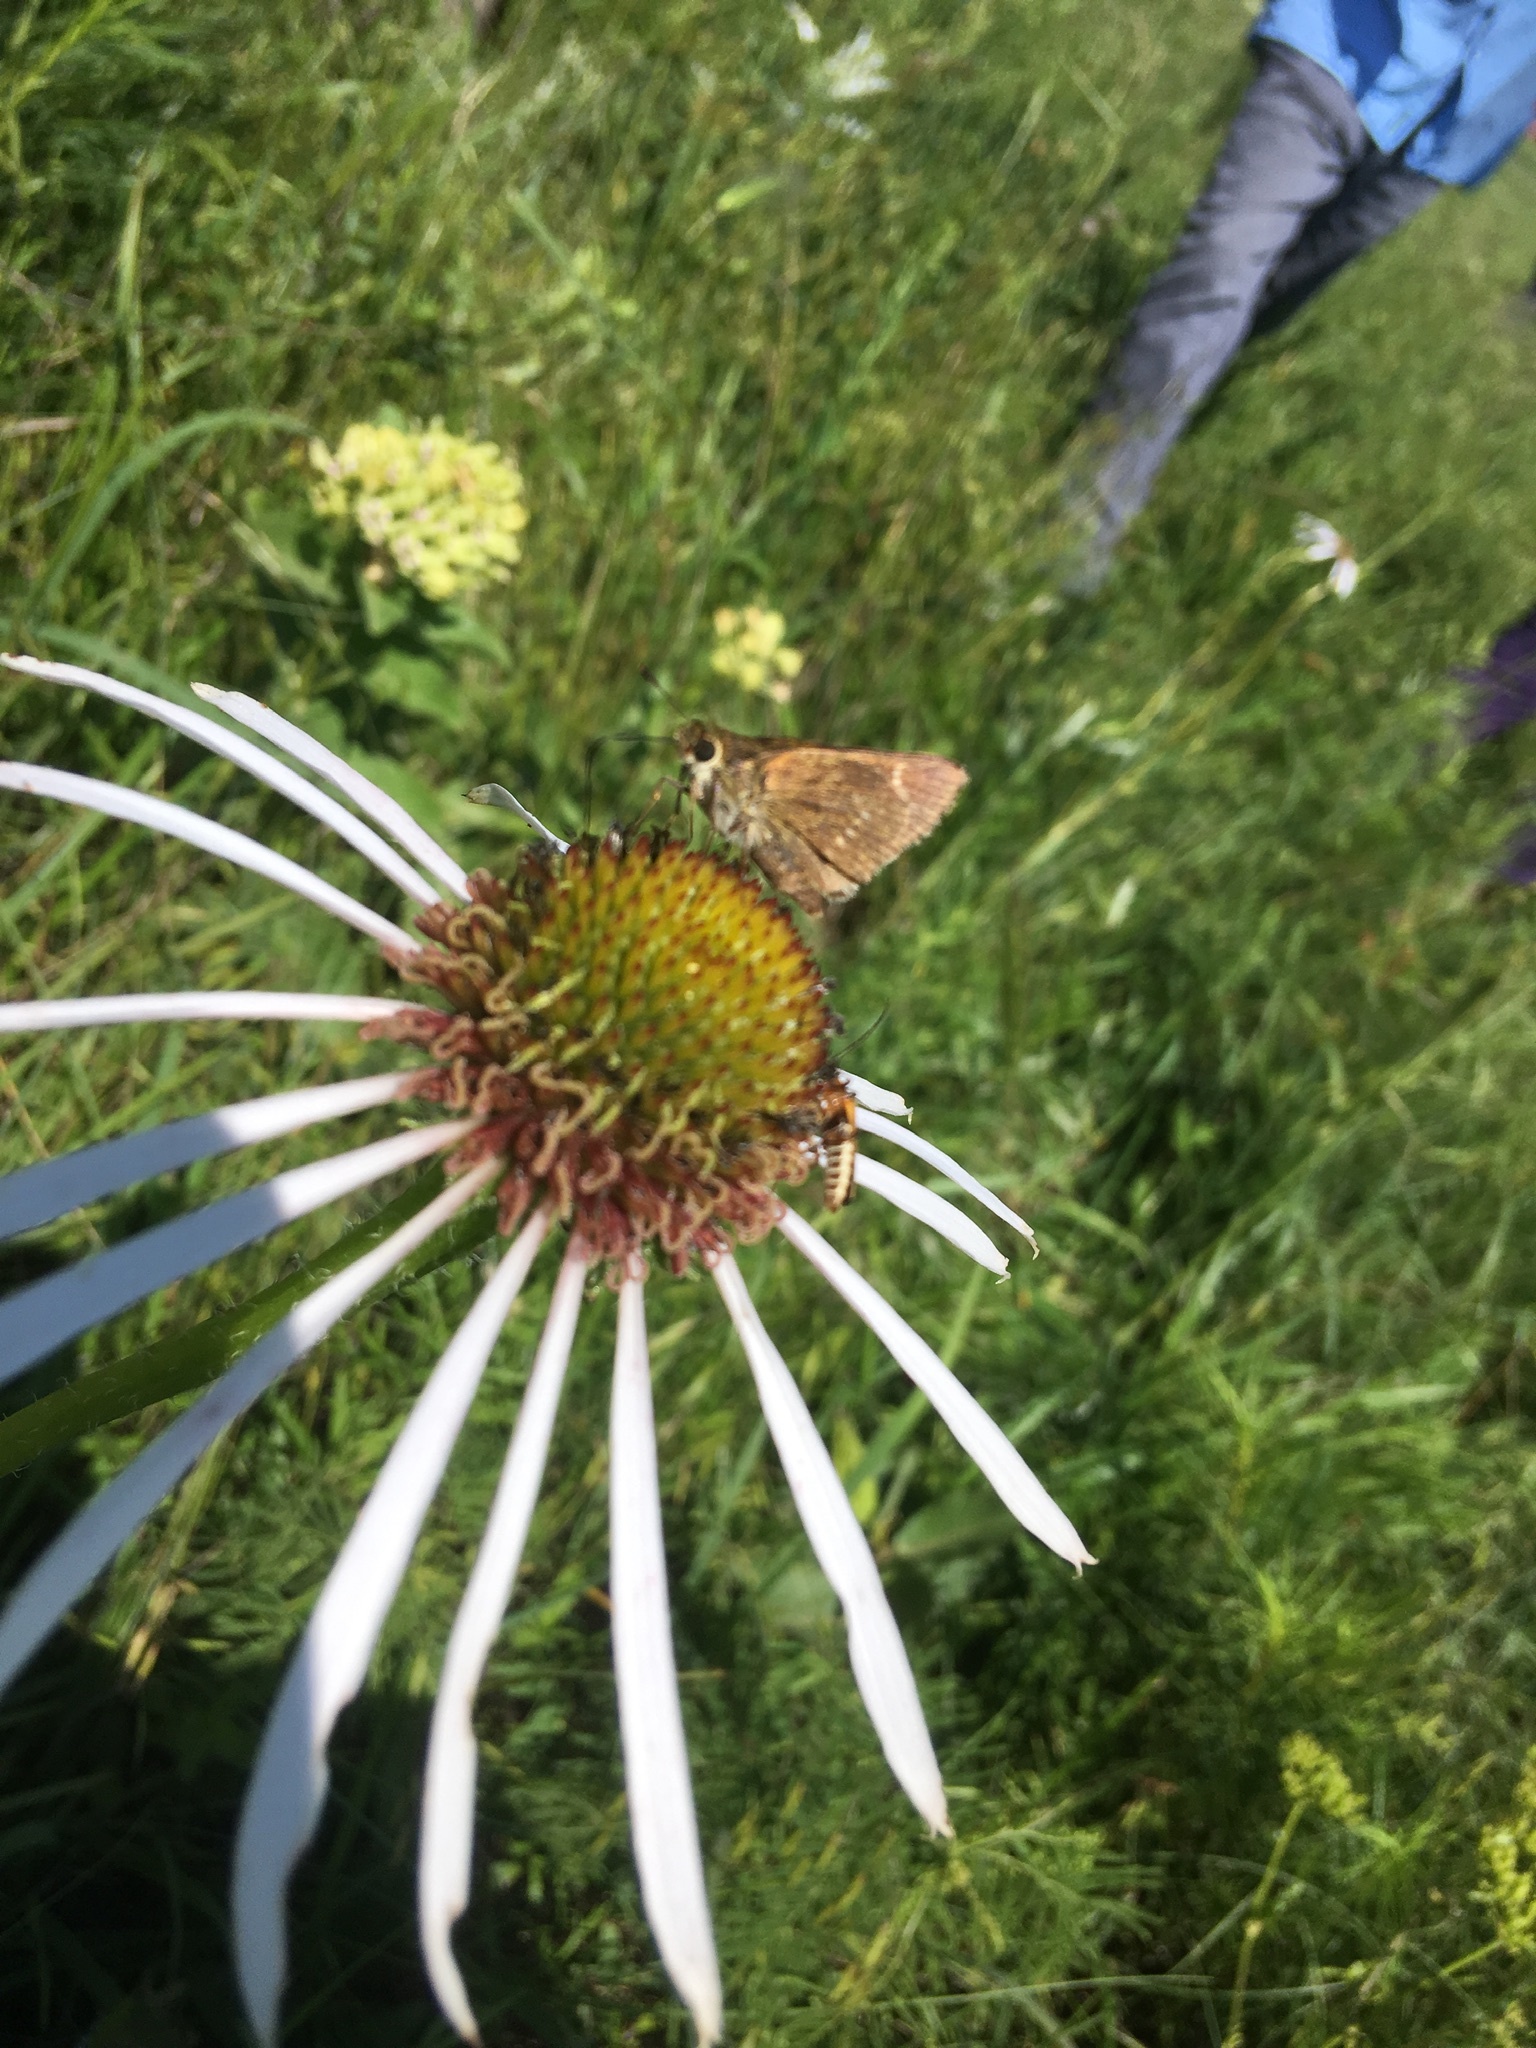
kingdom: Animalia
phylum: Arthropoda
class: Insecta
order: Lepidoptera
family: Hesperiidae
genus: Polites
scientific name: Polites origenes
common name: Crossline skipper
